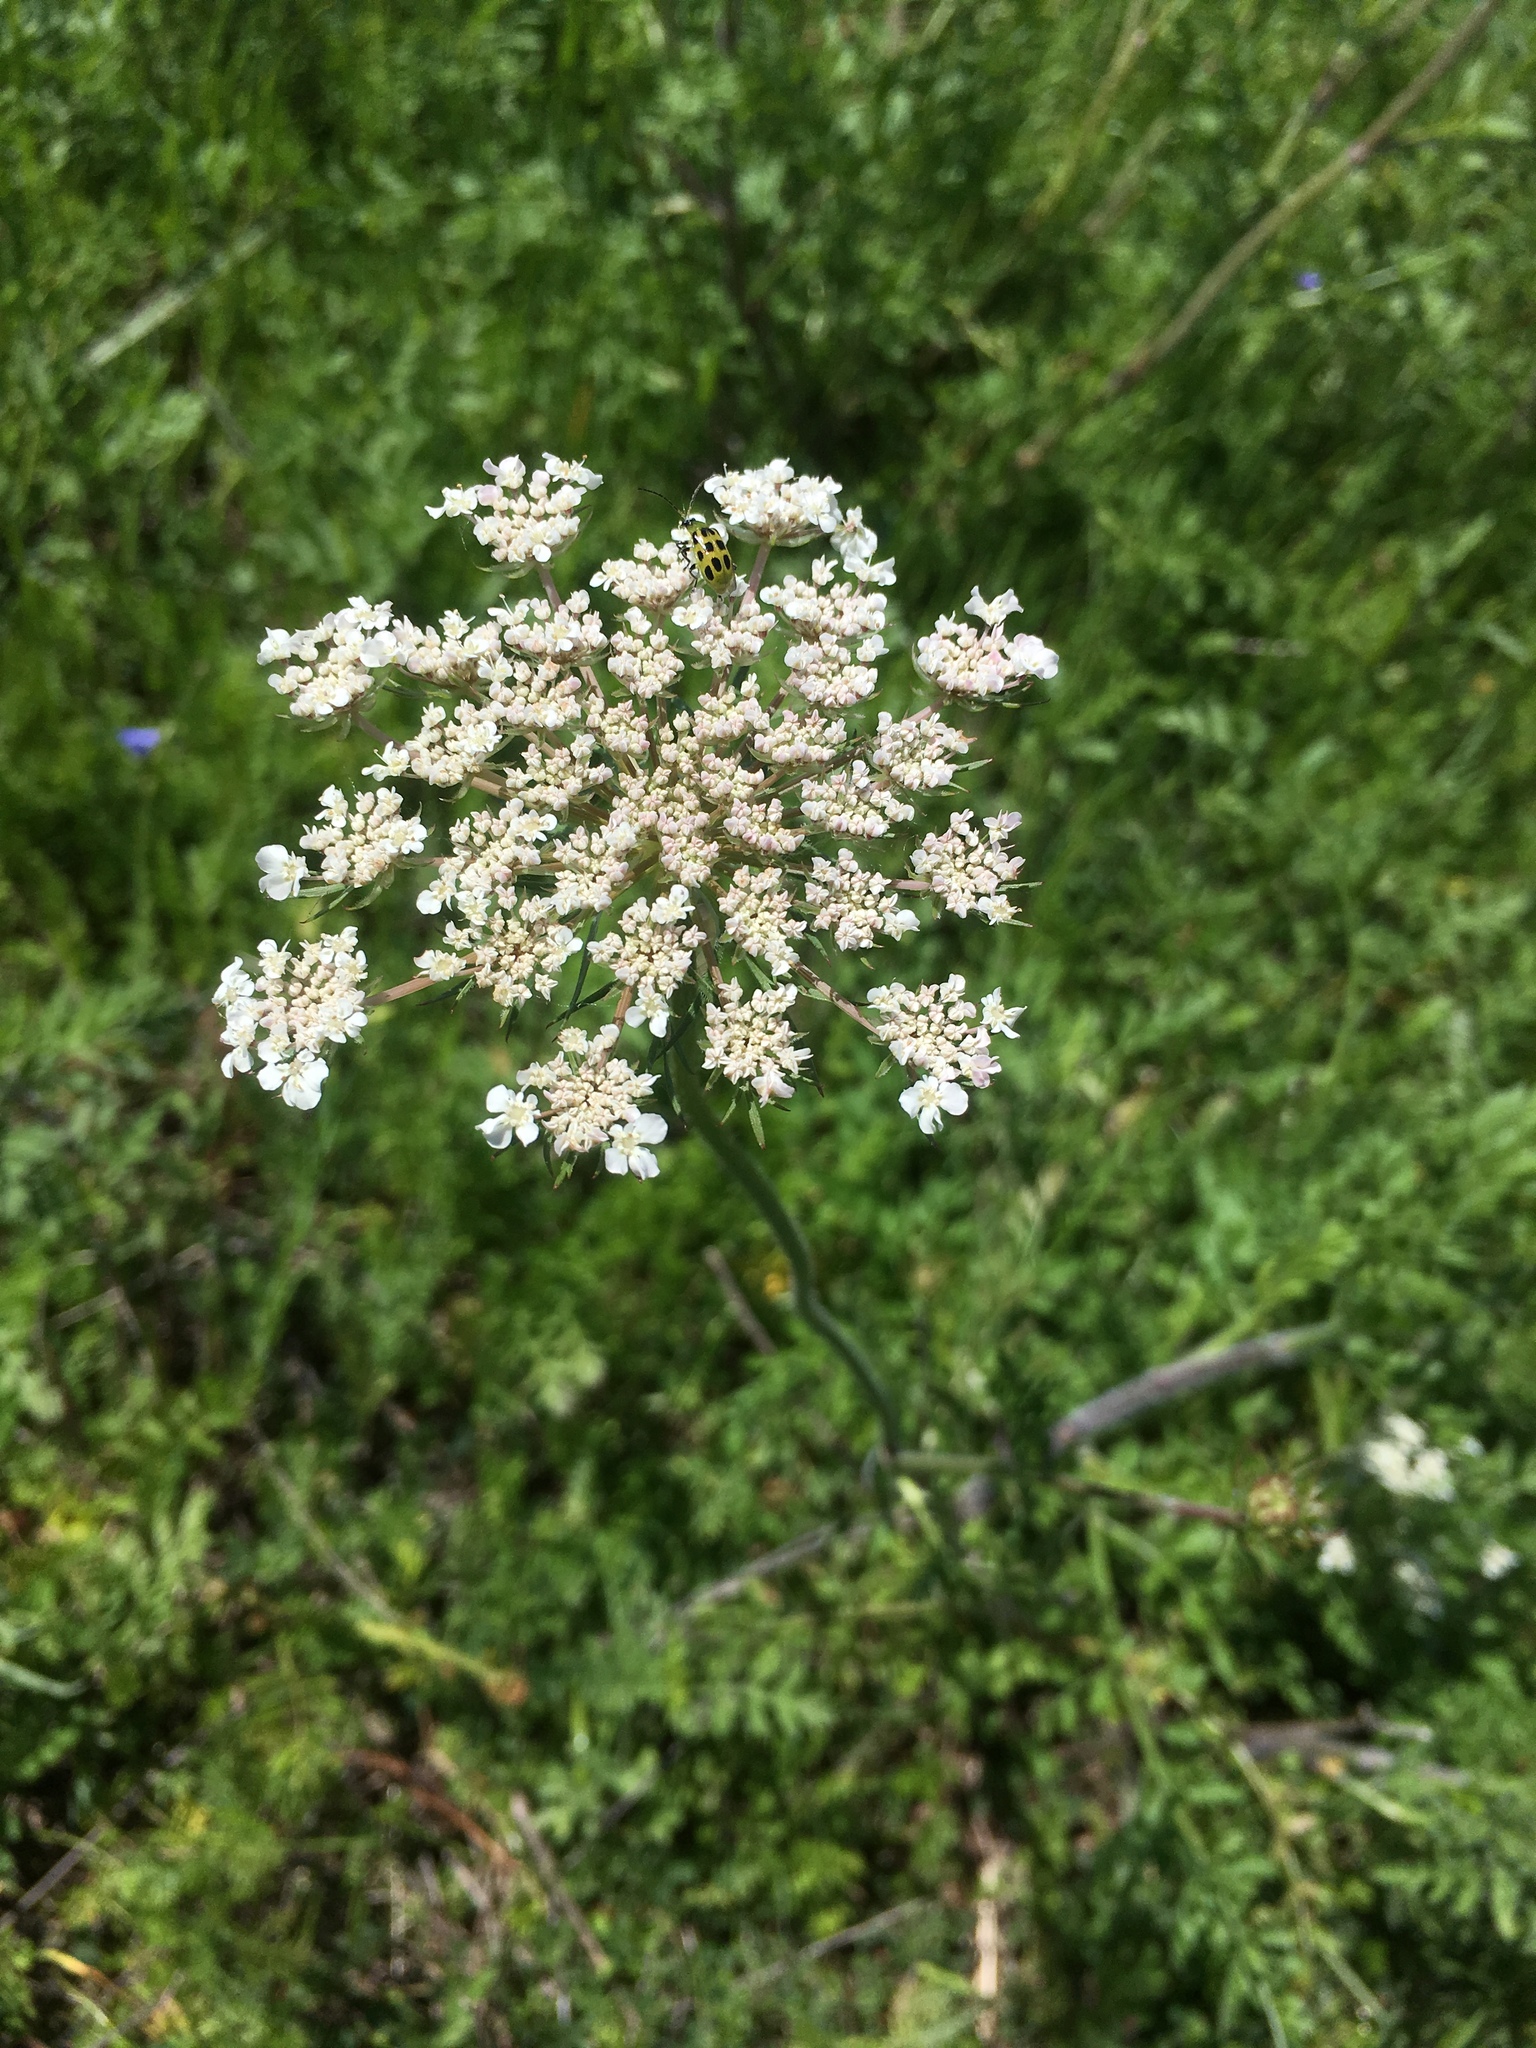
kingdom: Plantae
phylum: Tracheophyta
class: Magnoliopsida
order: Apiales
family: Apiaceae
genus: Daucus
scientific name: Daucus carota
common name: Wild carrot
